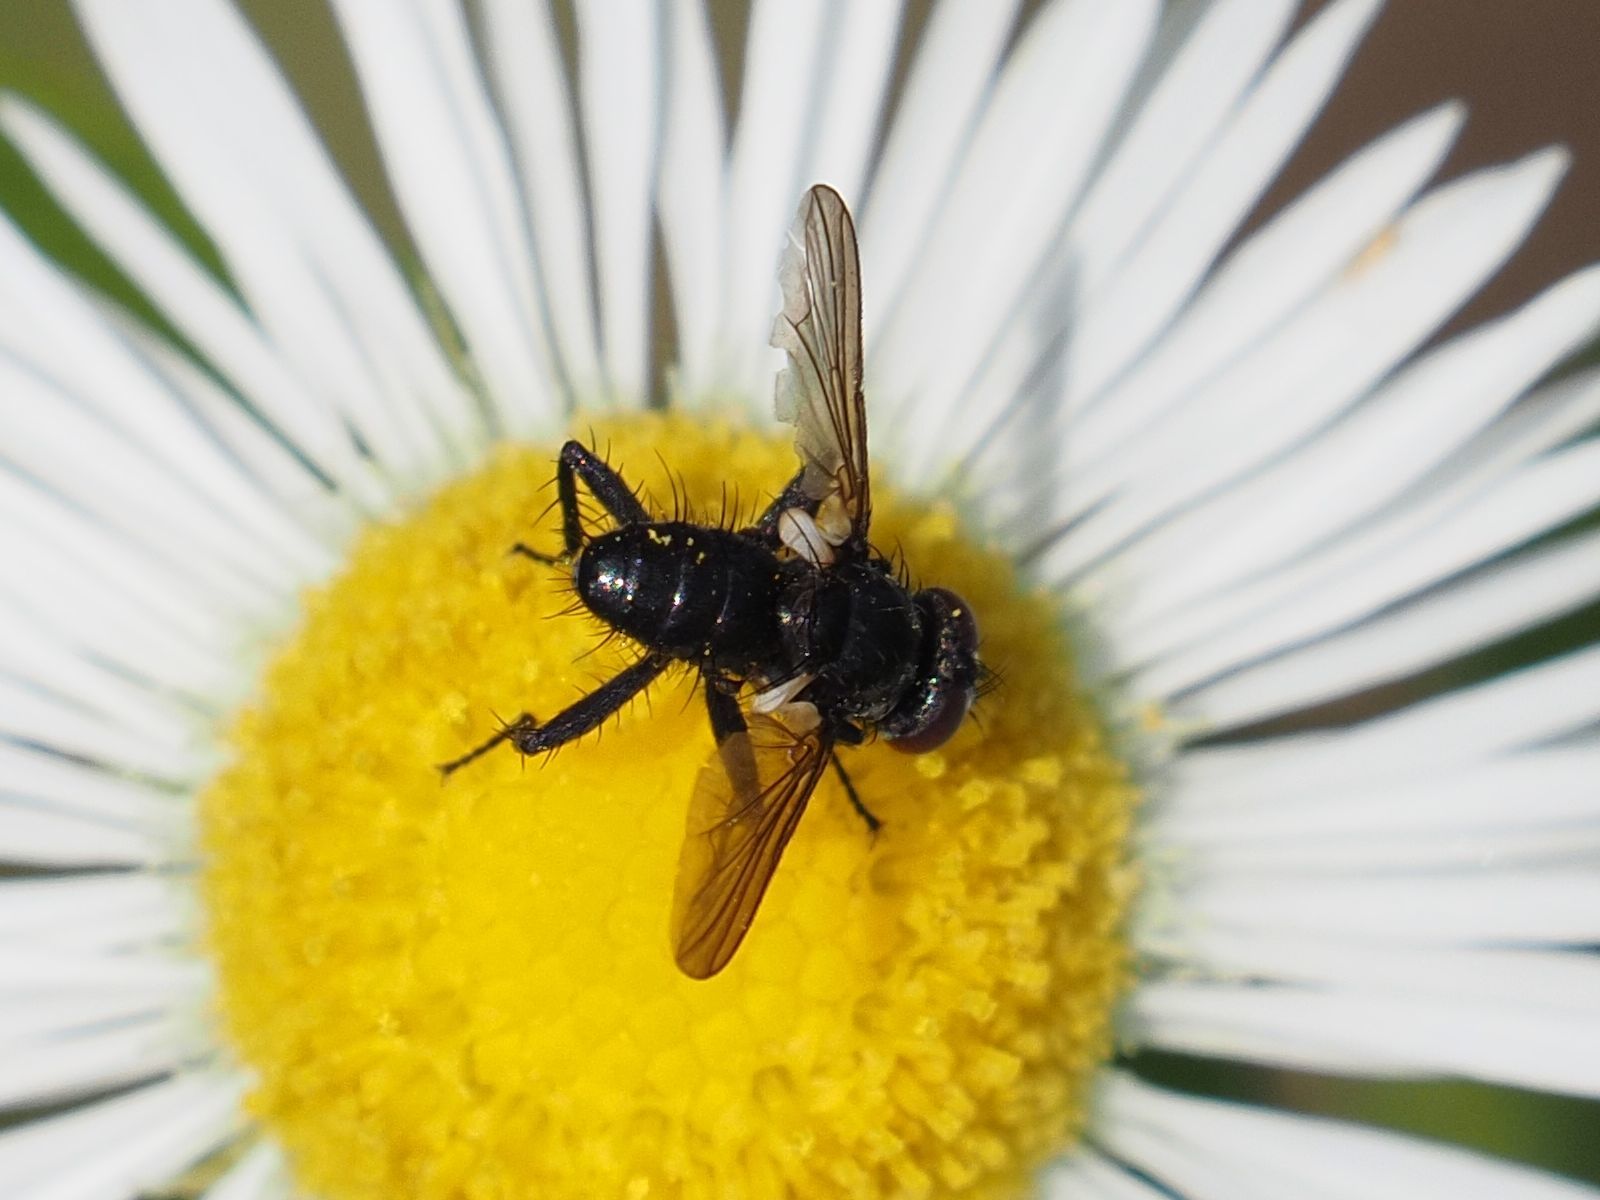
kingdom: Animalia
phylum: Arthropoda
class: Insecta
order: Diptera
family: Tachinidae
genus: Phania
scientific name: Phania funesta
